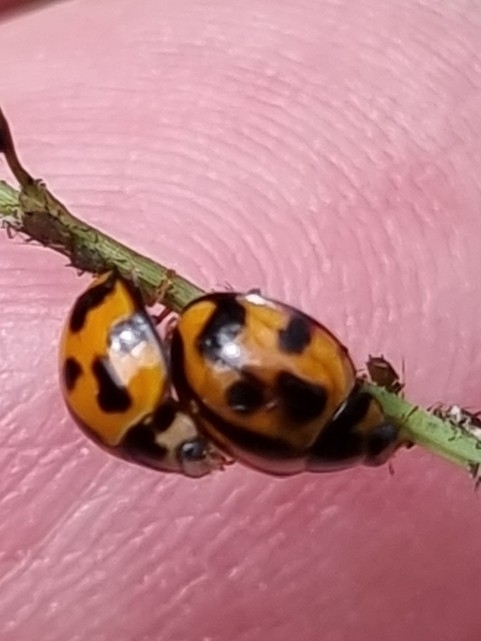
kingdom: Animalia
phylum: Arthropoda
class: Insecta
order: Coleoptera
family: Coccinellidae
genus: Coelophora
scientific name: Coelophora inaequalis
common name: Common australian lady beetle
